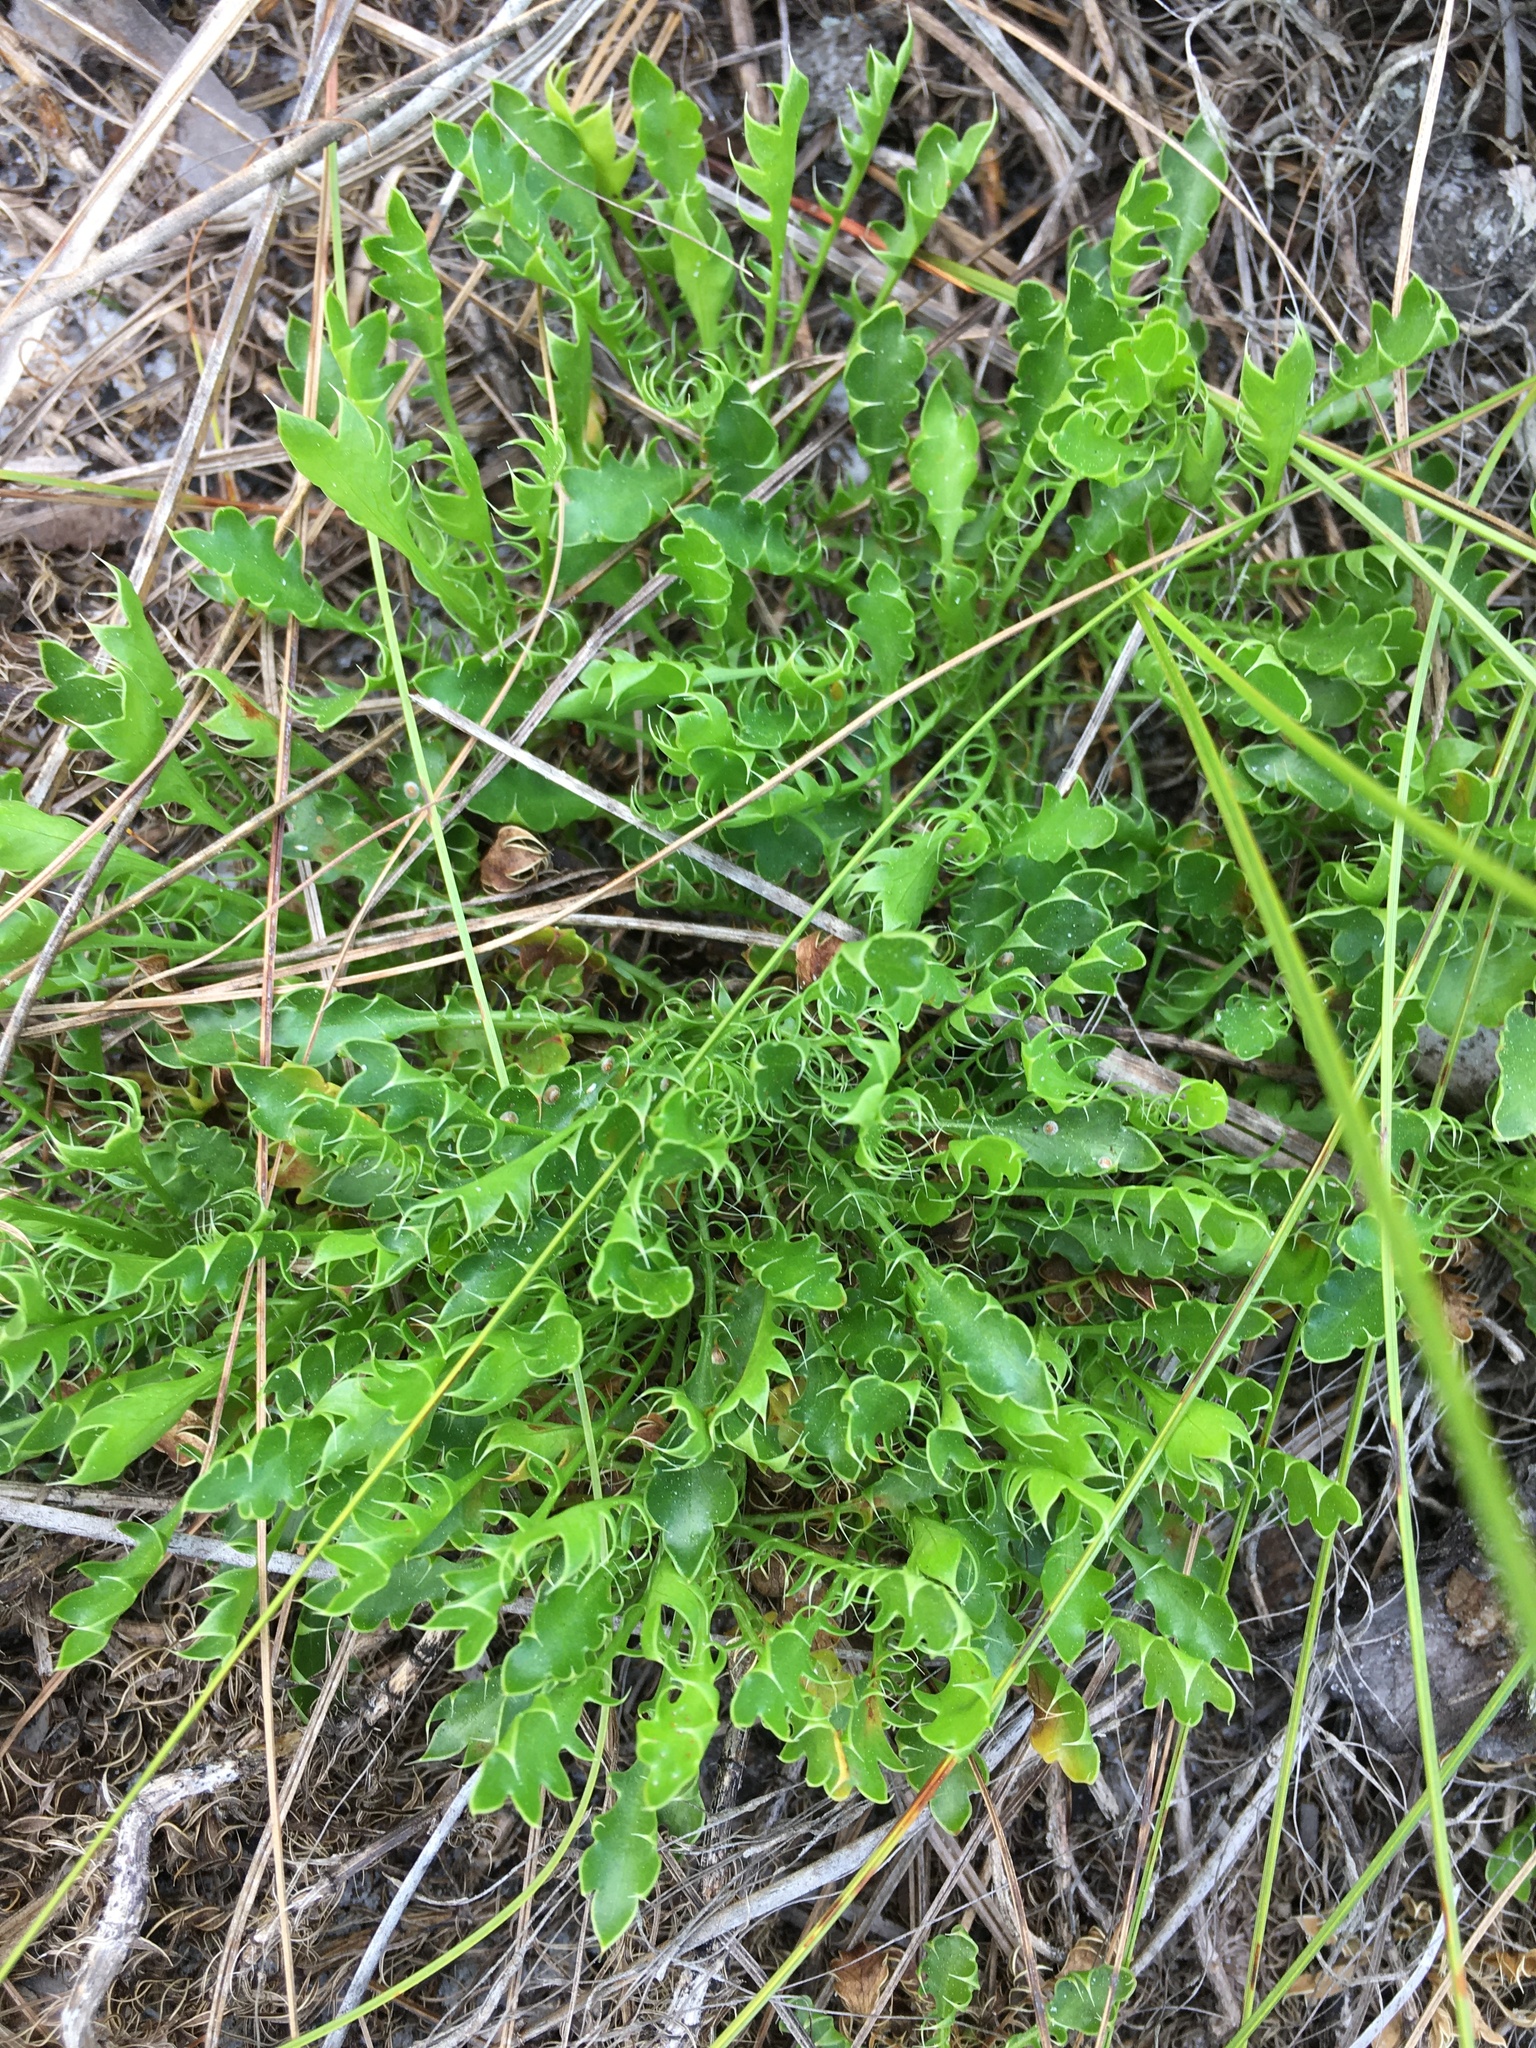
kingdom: Plantae
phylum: Tracheophyta
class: Magnoliopsida
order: Apiales
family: Apiaceae
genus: Eryngium
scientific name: Eryngium aromaticum
